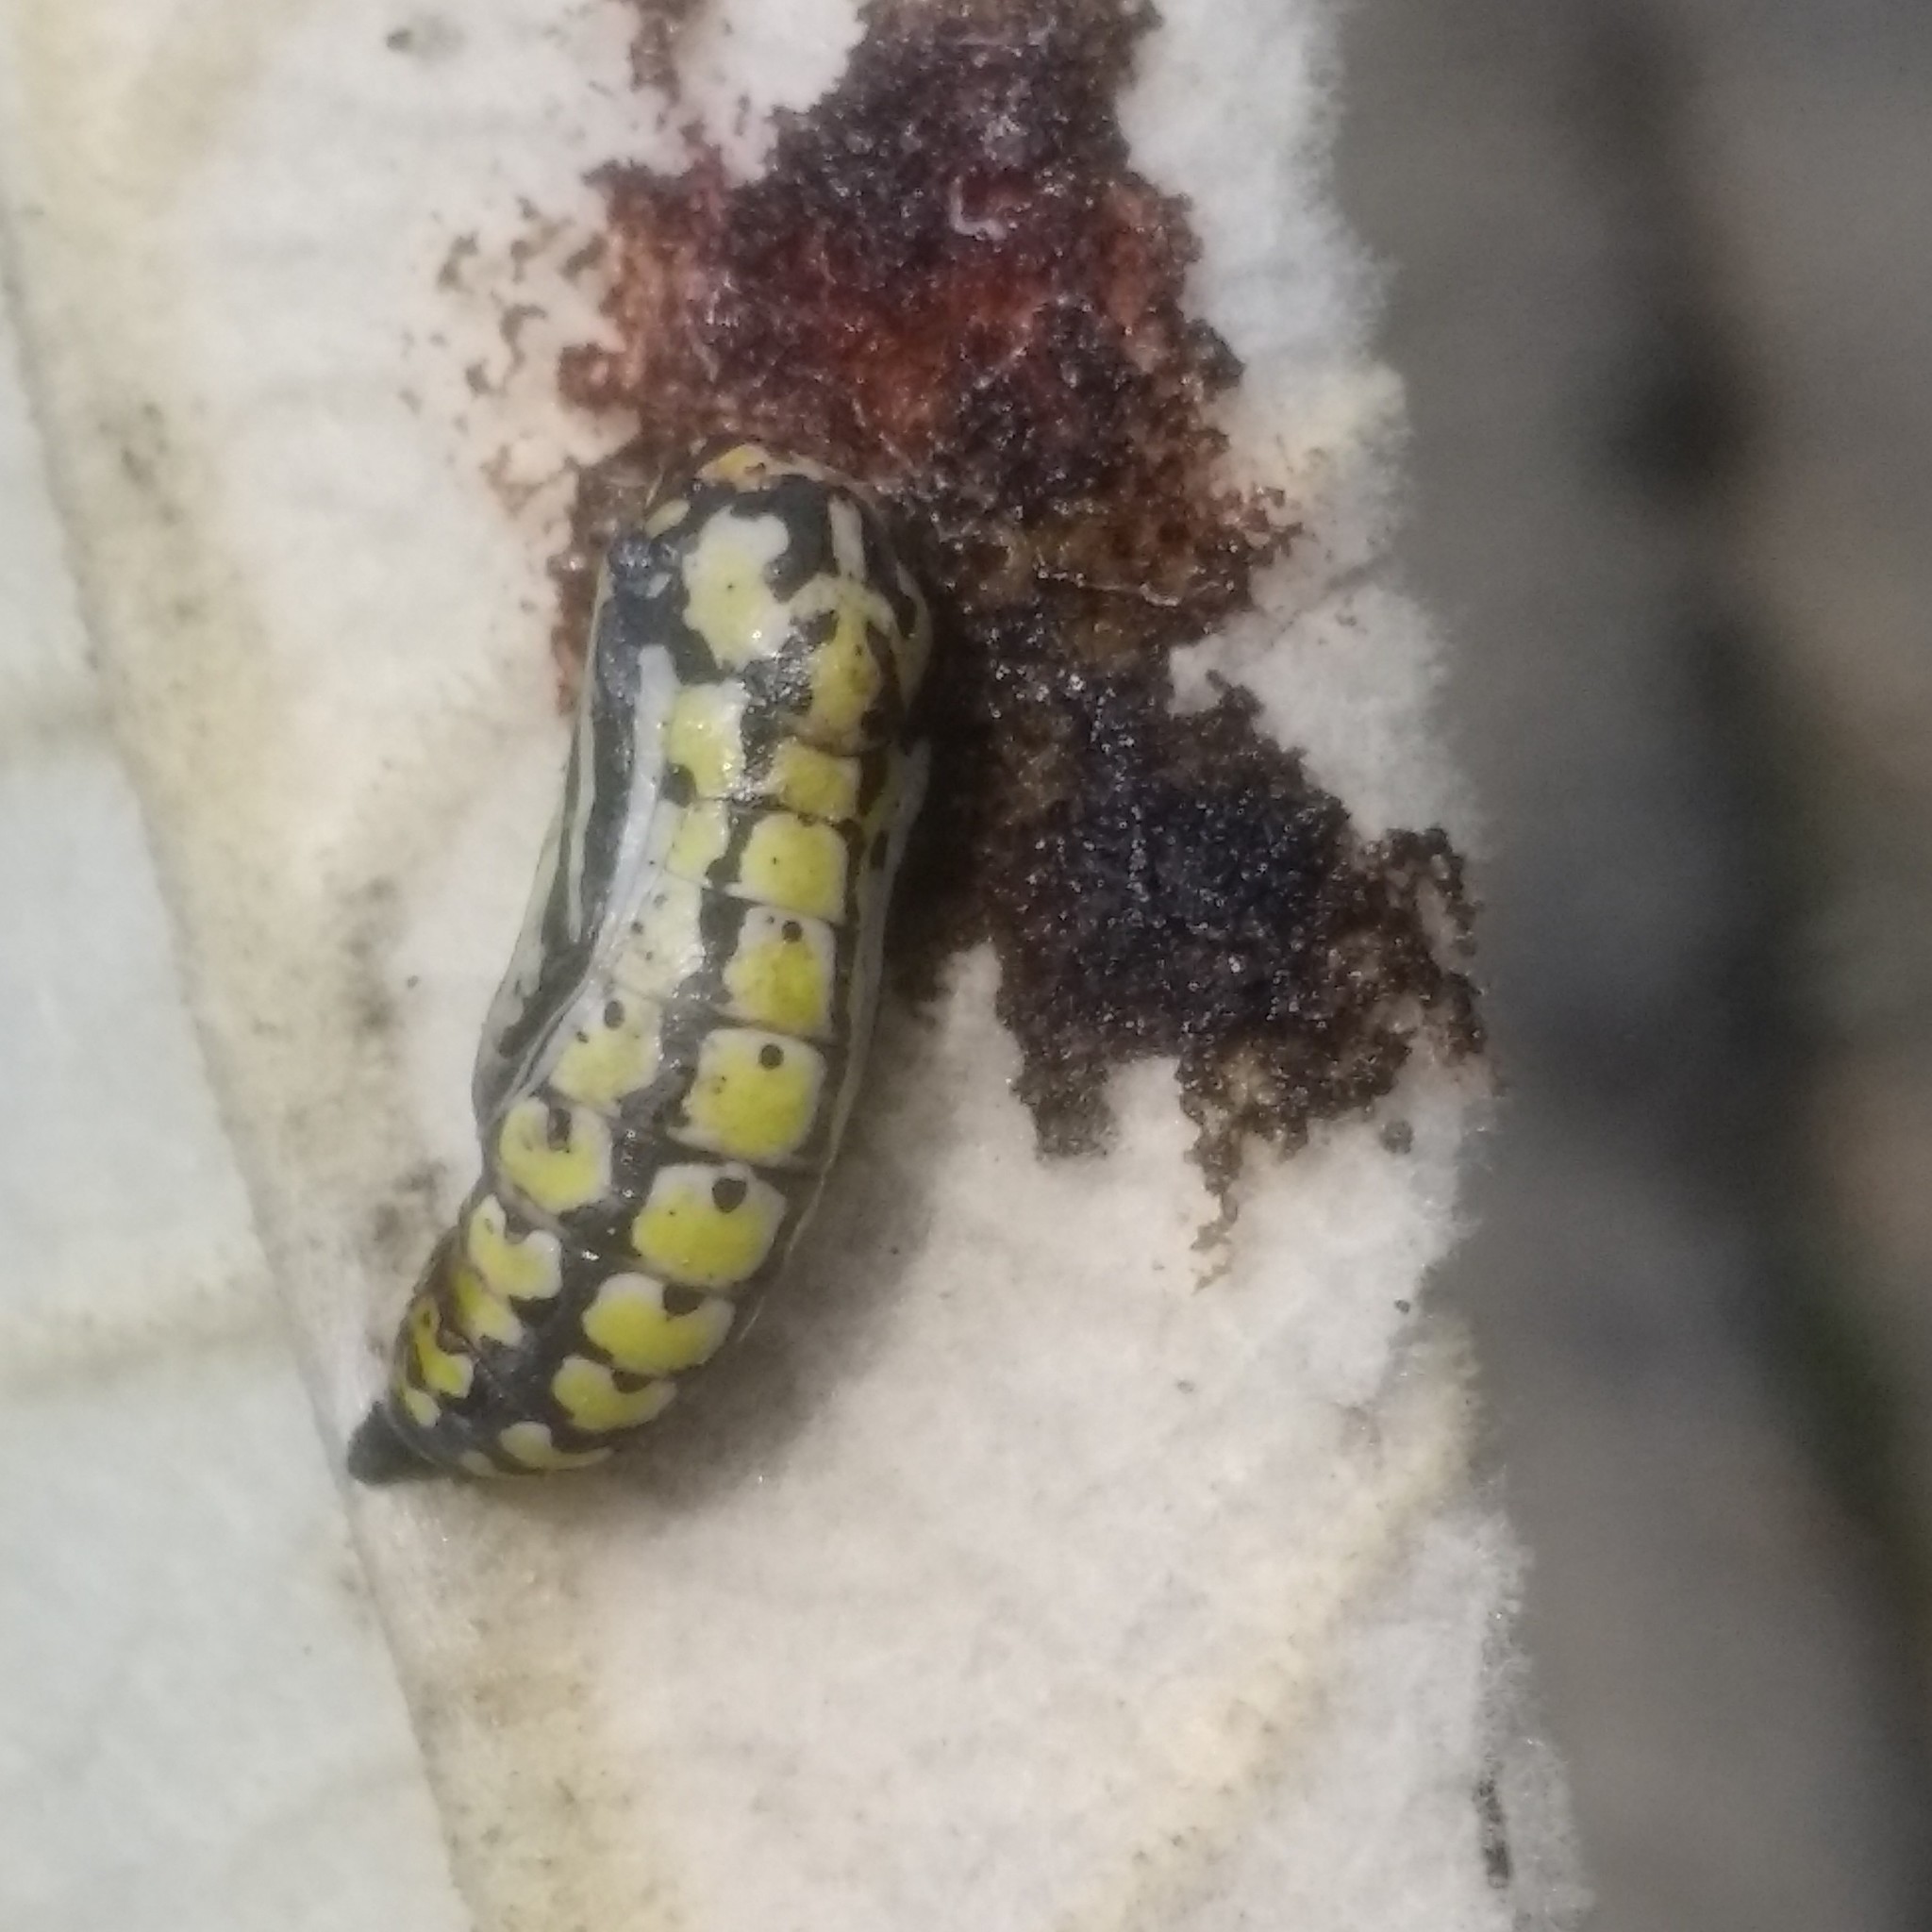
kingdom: Animalia
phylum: Arthropoda
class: Insecta
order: Lepidoptera
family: Nymphalidae
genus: Chlosyne
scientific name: Chlosyne ehrenbergii
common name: White-rayed patch
